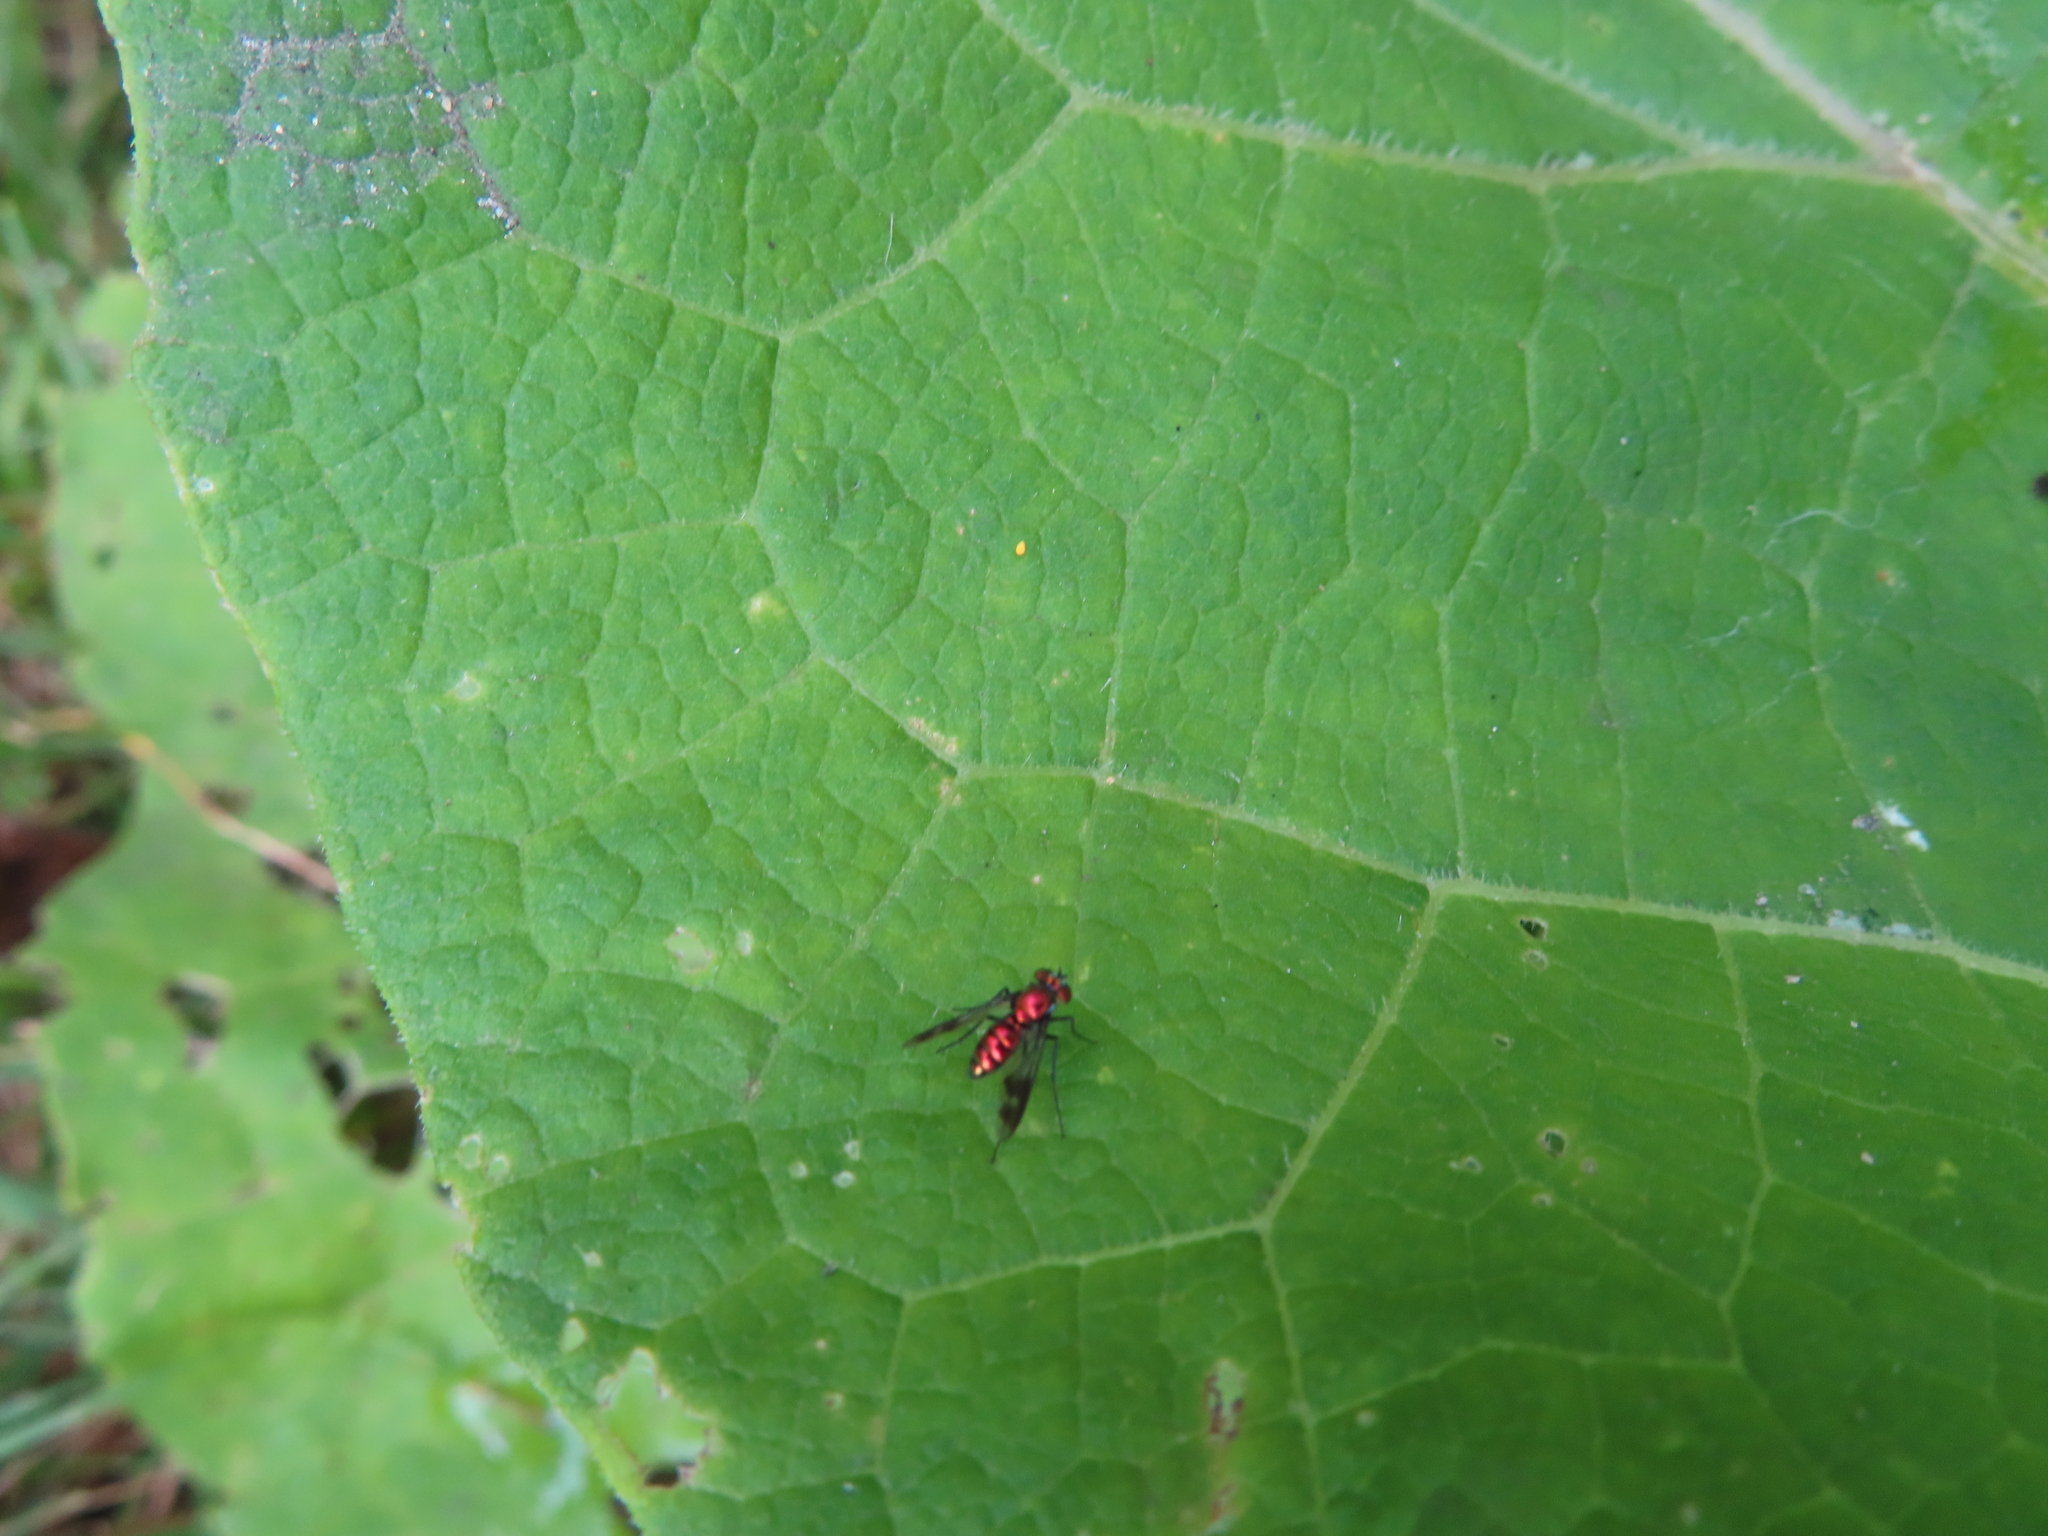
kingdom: Animalia
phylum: Arthropoda
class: Insecta
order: Diptera
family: Dolichopodidae
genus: Condylostylus
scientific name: Condylostylus patibulatus
